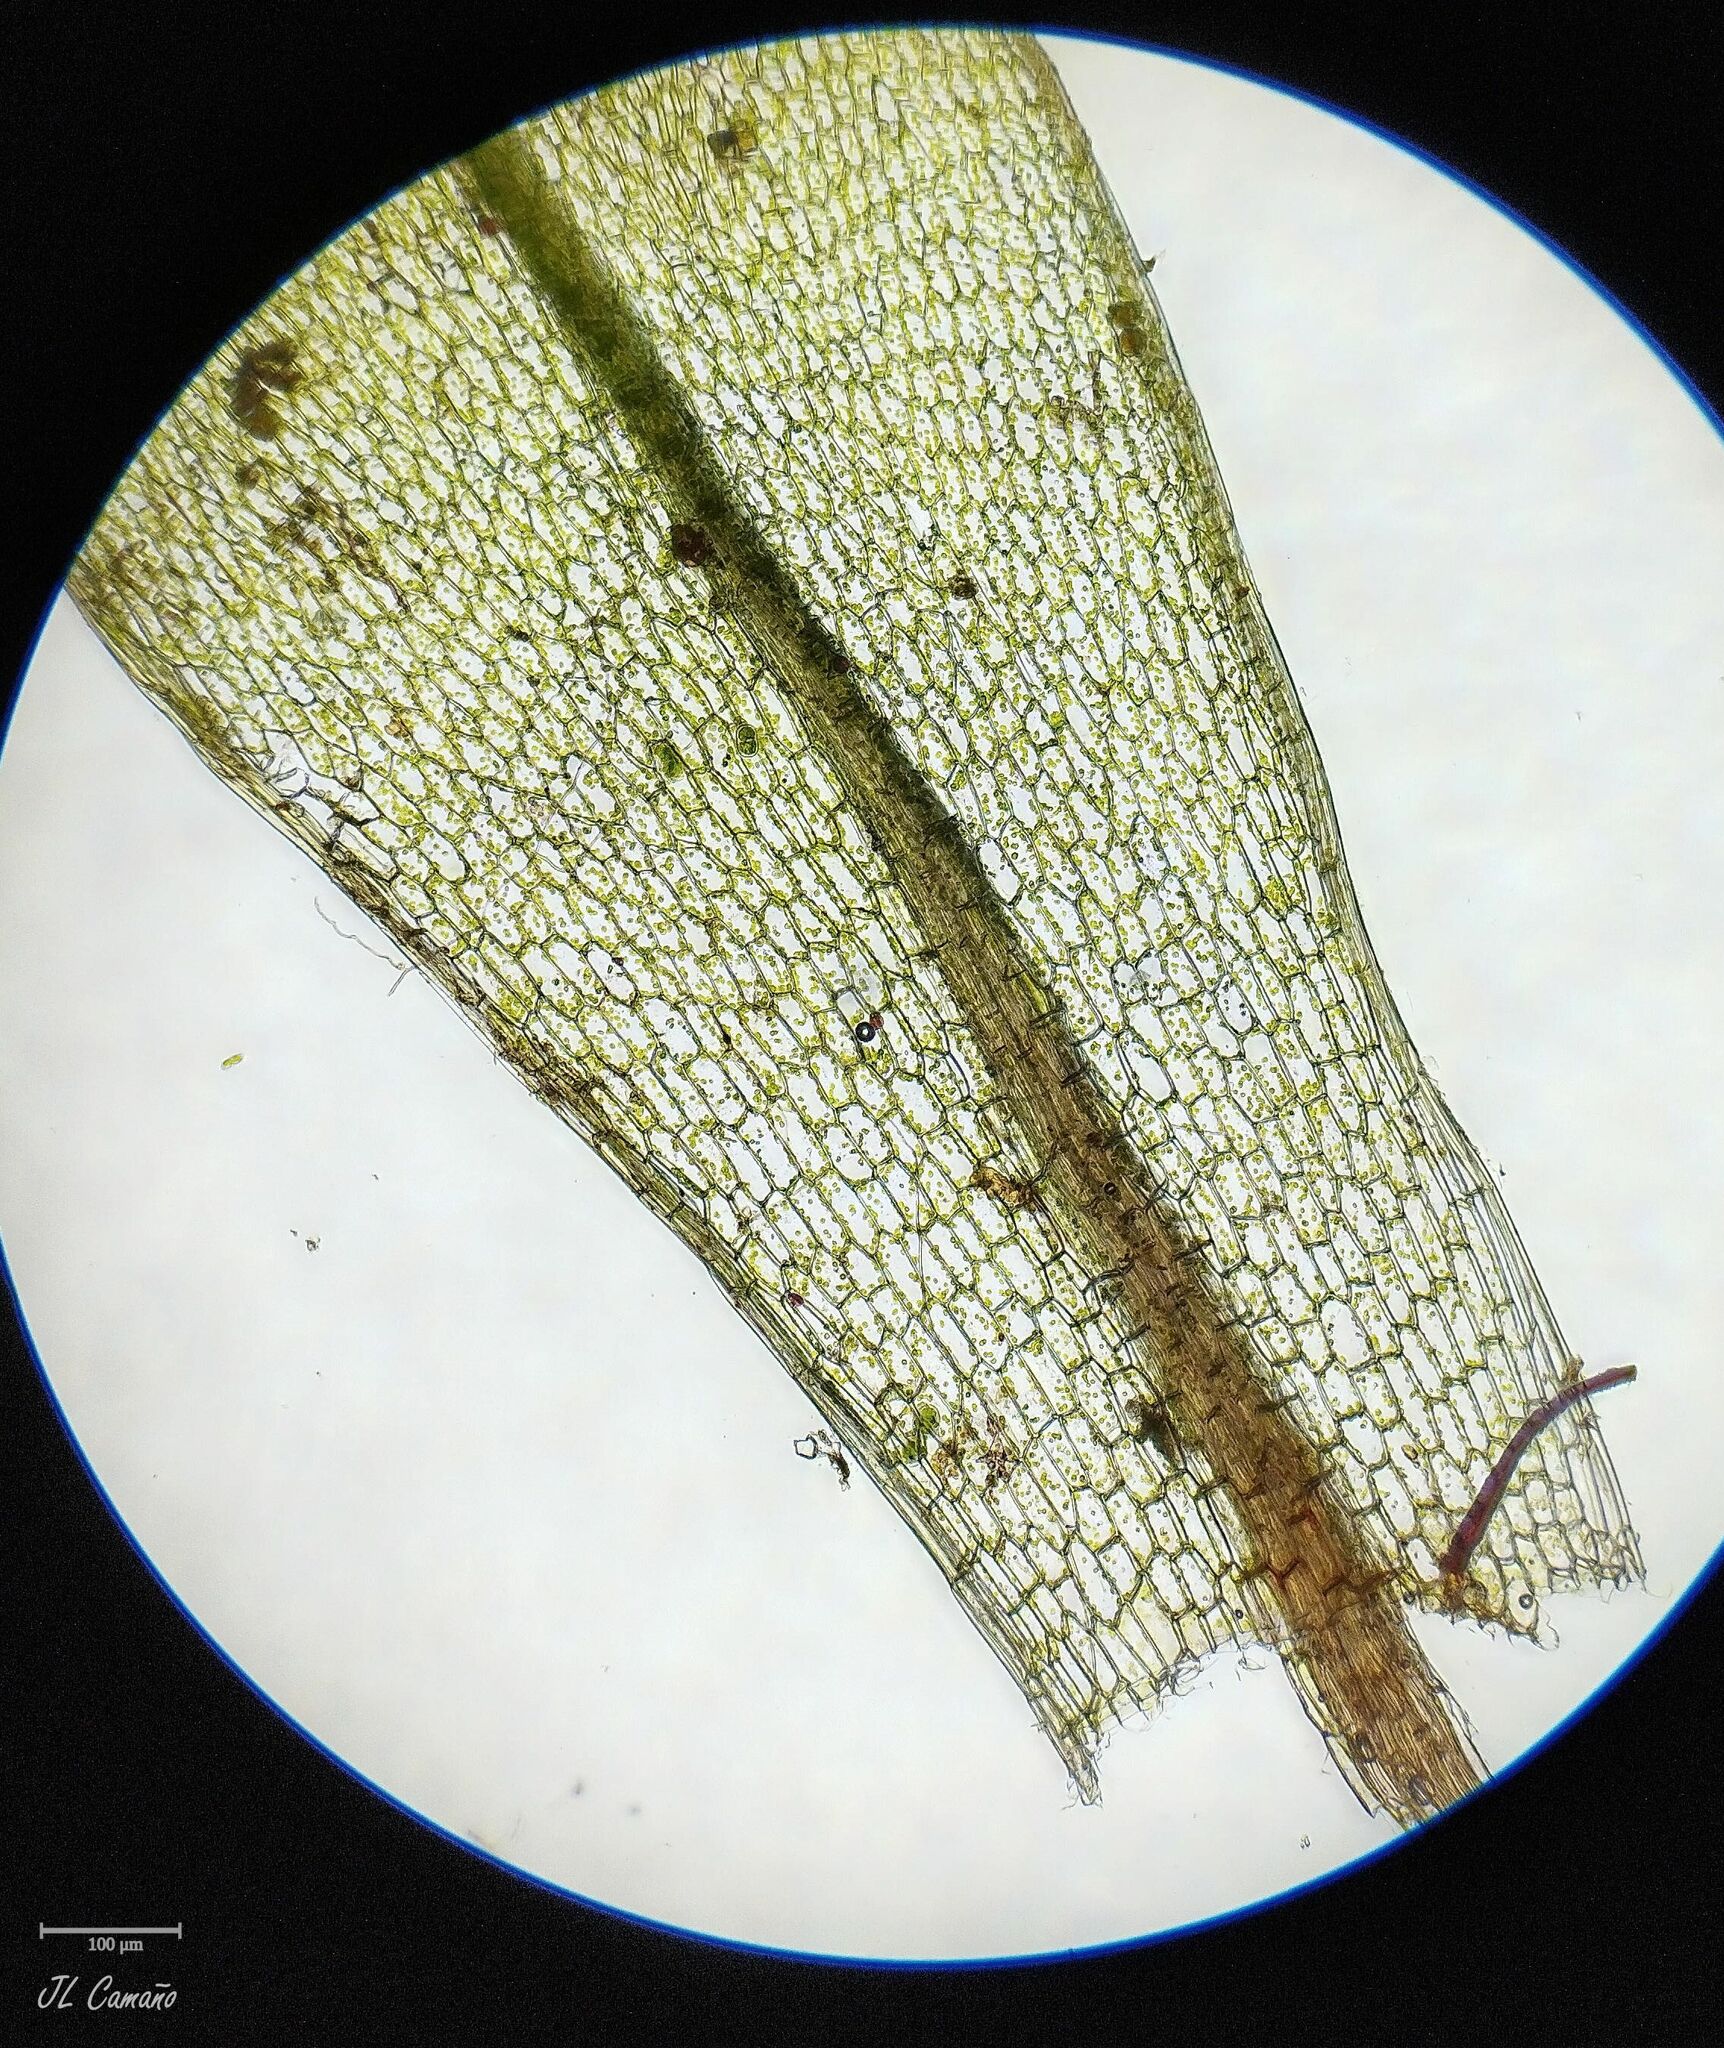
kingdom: Plantae
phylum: Bryophyta
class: Bryopsida
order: Bryales
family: Bryaceae
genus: Rosulabryum
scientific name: Rosulabryum capillare
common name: Capillary thread-moss
